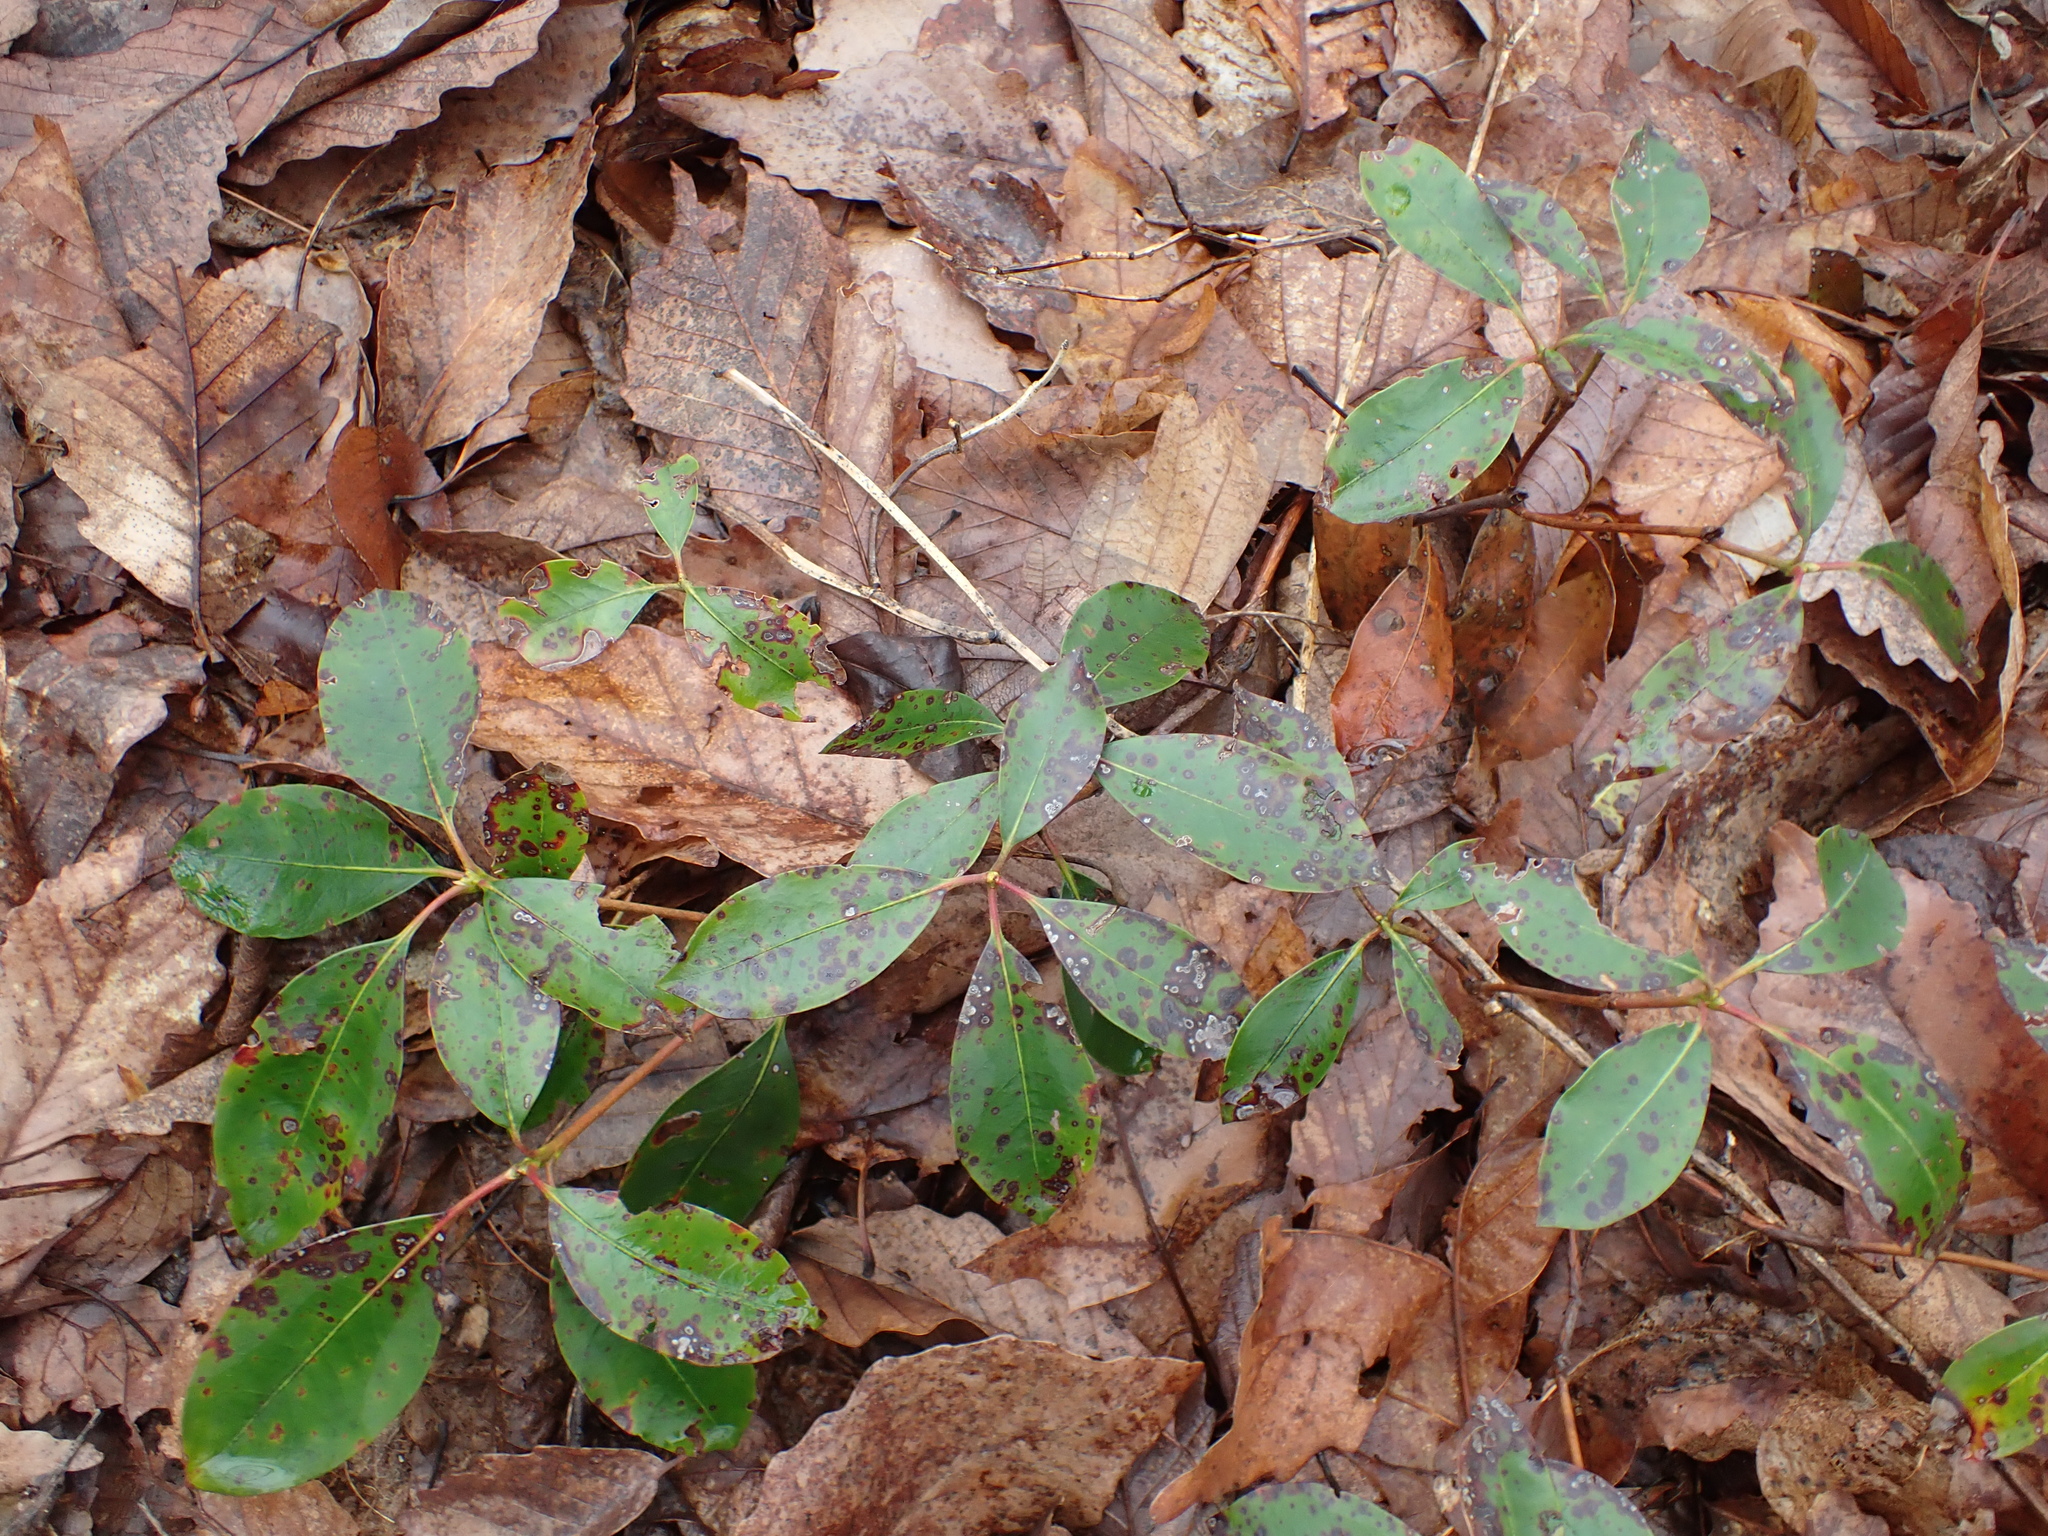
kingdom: Plantae
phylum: Tracheophyta
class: Magnoliopsida
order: Ericales
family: Ericaceae
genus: Kalmia
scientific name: Kalmia latifolia
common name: Mountain-laurel
